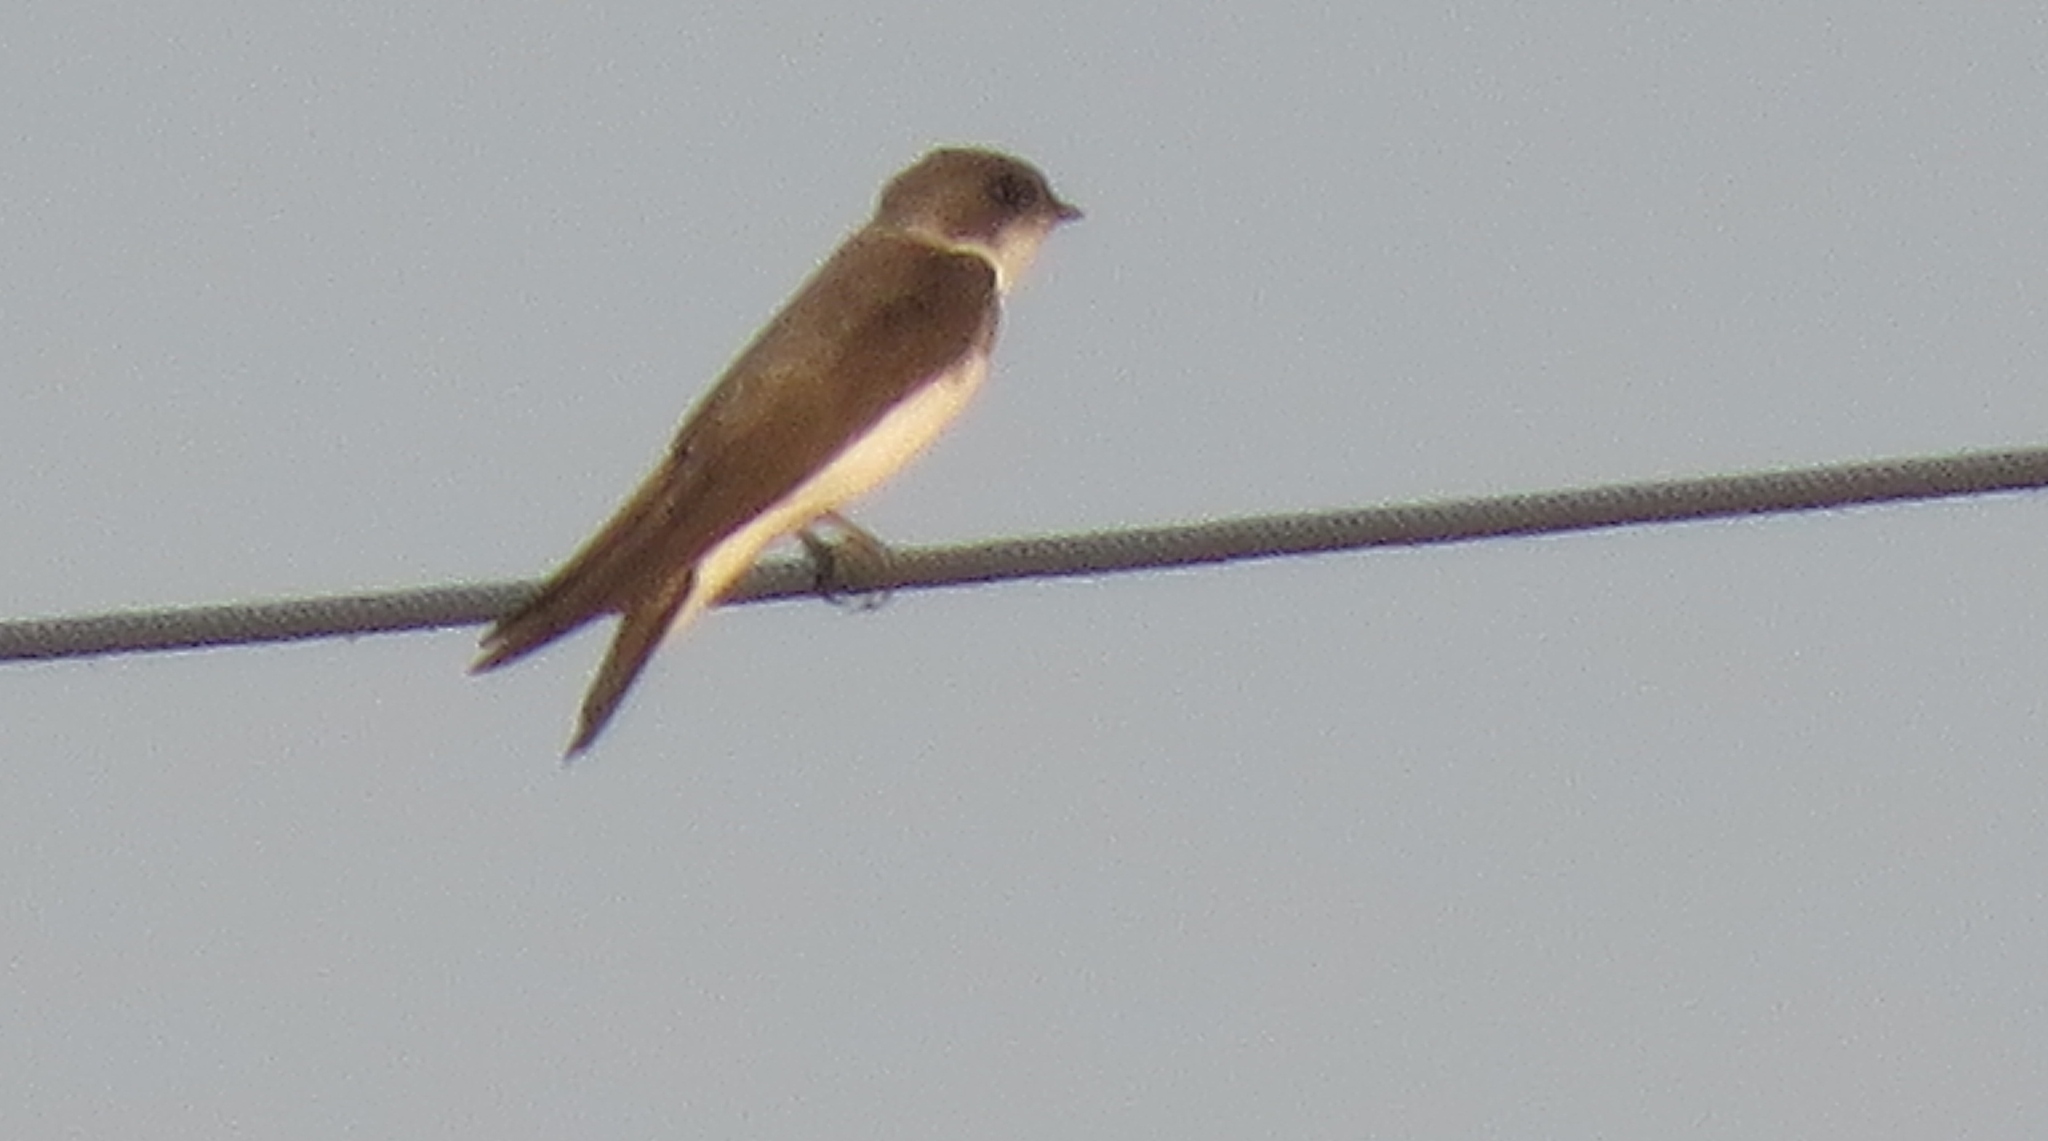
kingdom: Animalia
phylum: Chordata
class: Aves
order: Passeriformes
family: Hirundinidae
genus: Riparia
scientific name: Riparia riparia
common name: Sand martin
